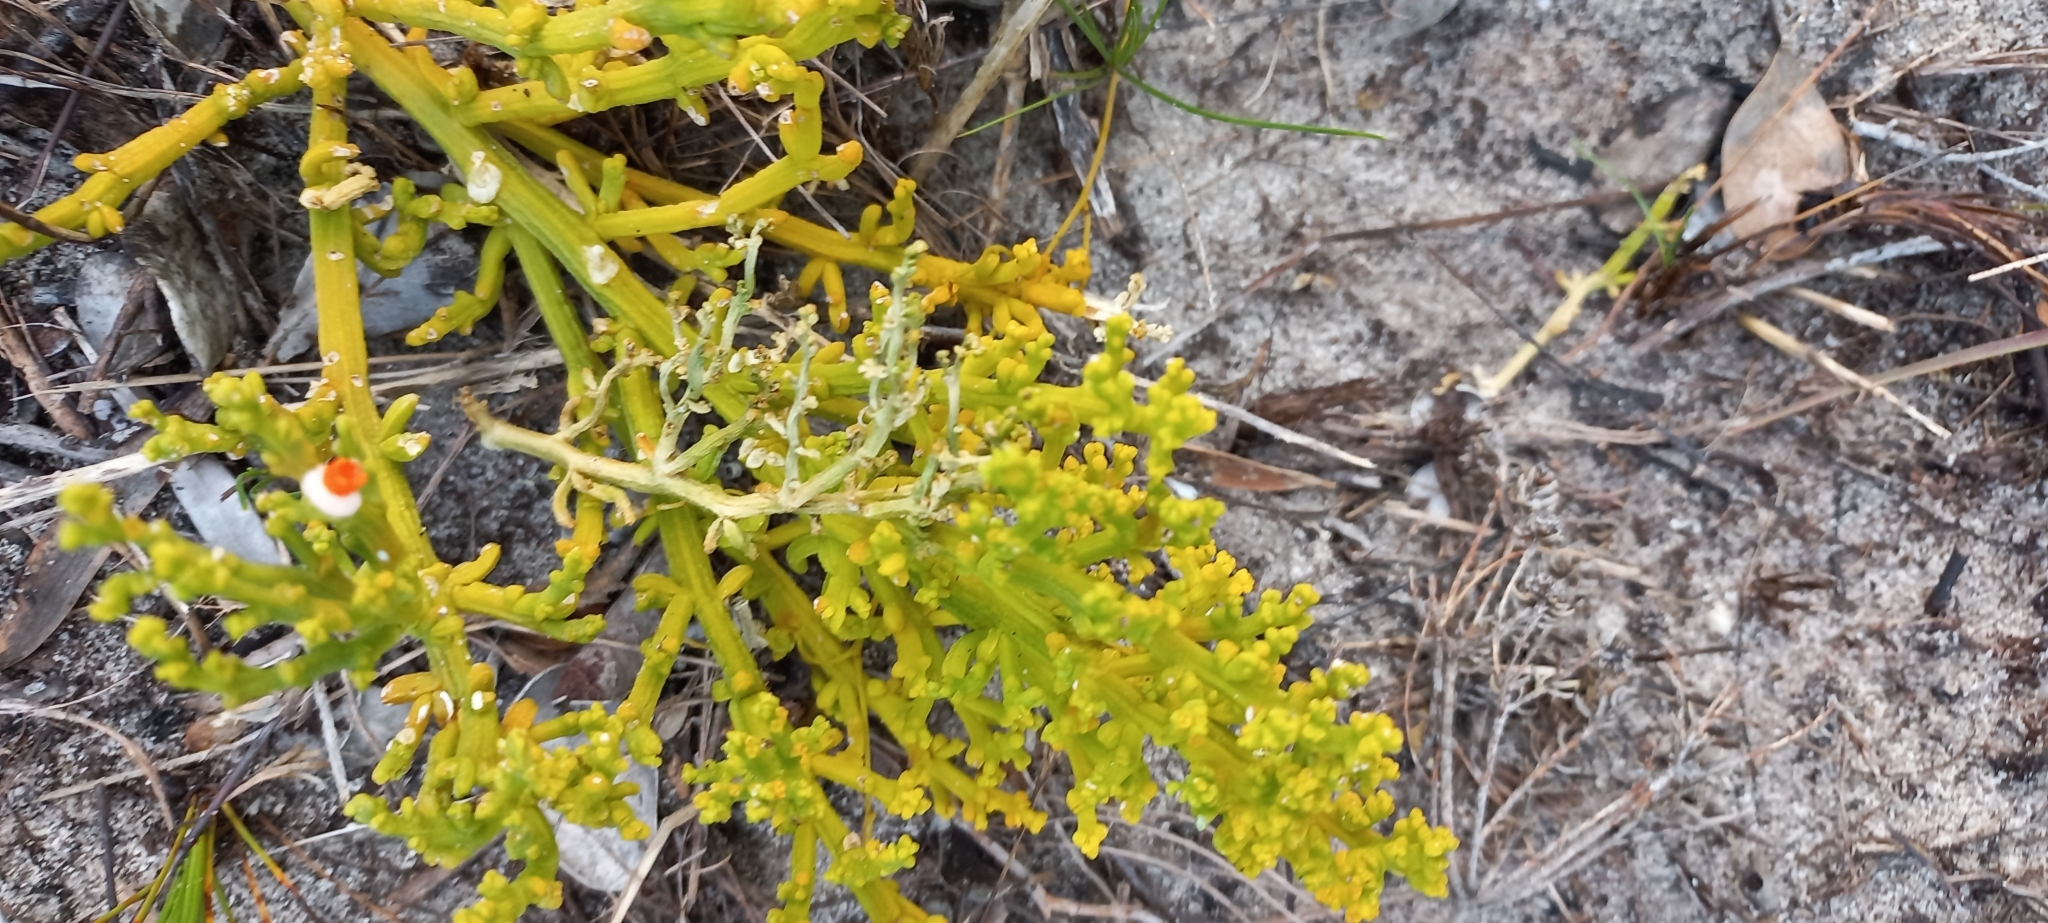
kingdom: Plantae
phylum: Tracheophyta
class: Magnoliopsida
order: Santalales
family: Thesiaceae
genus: Thesium
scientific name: Thesium fragile
